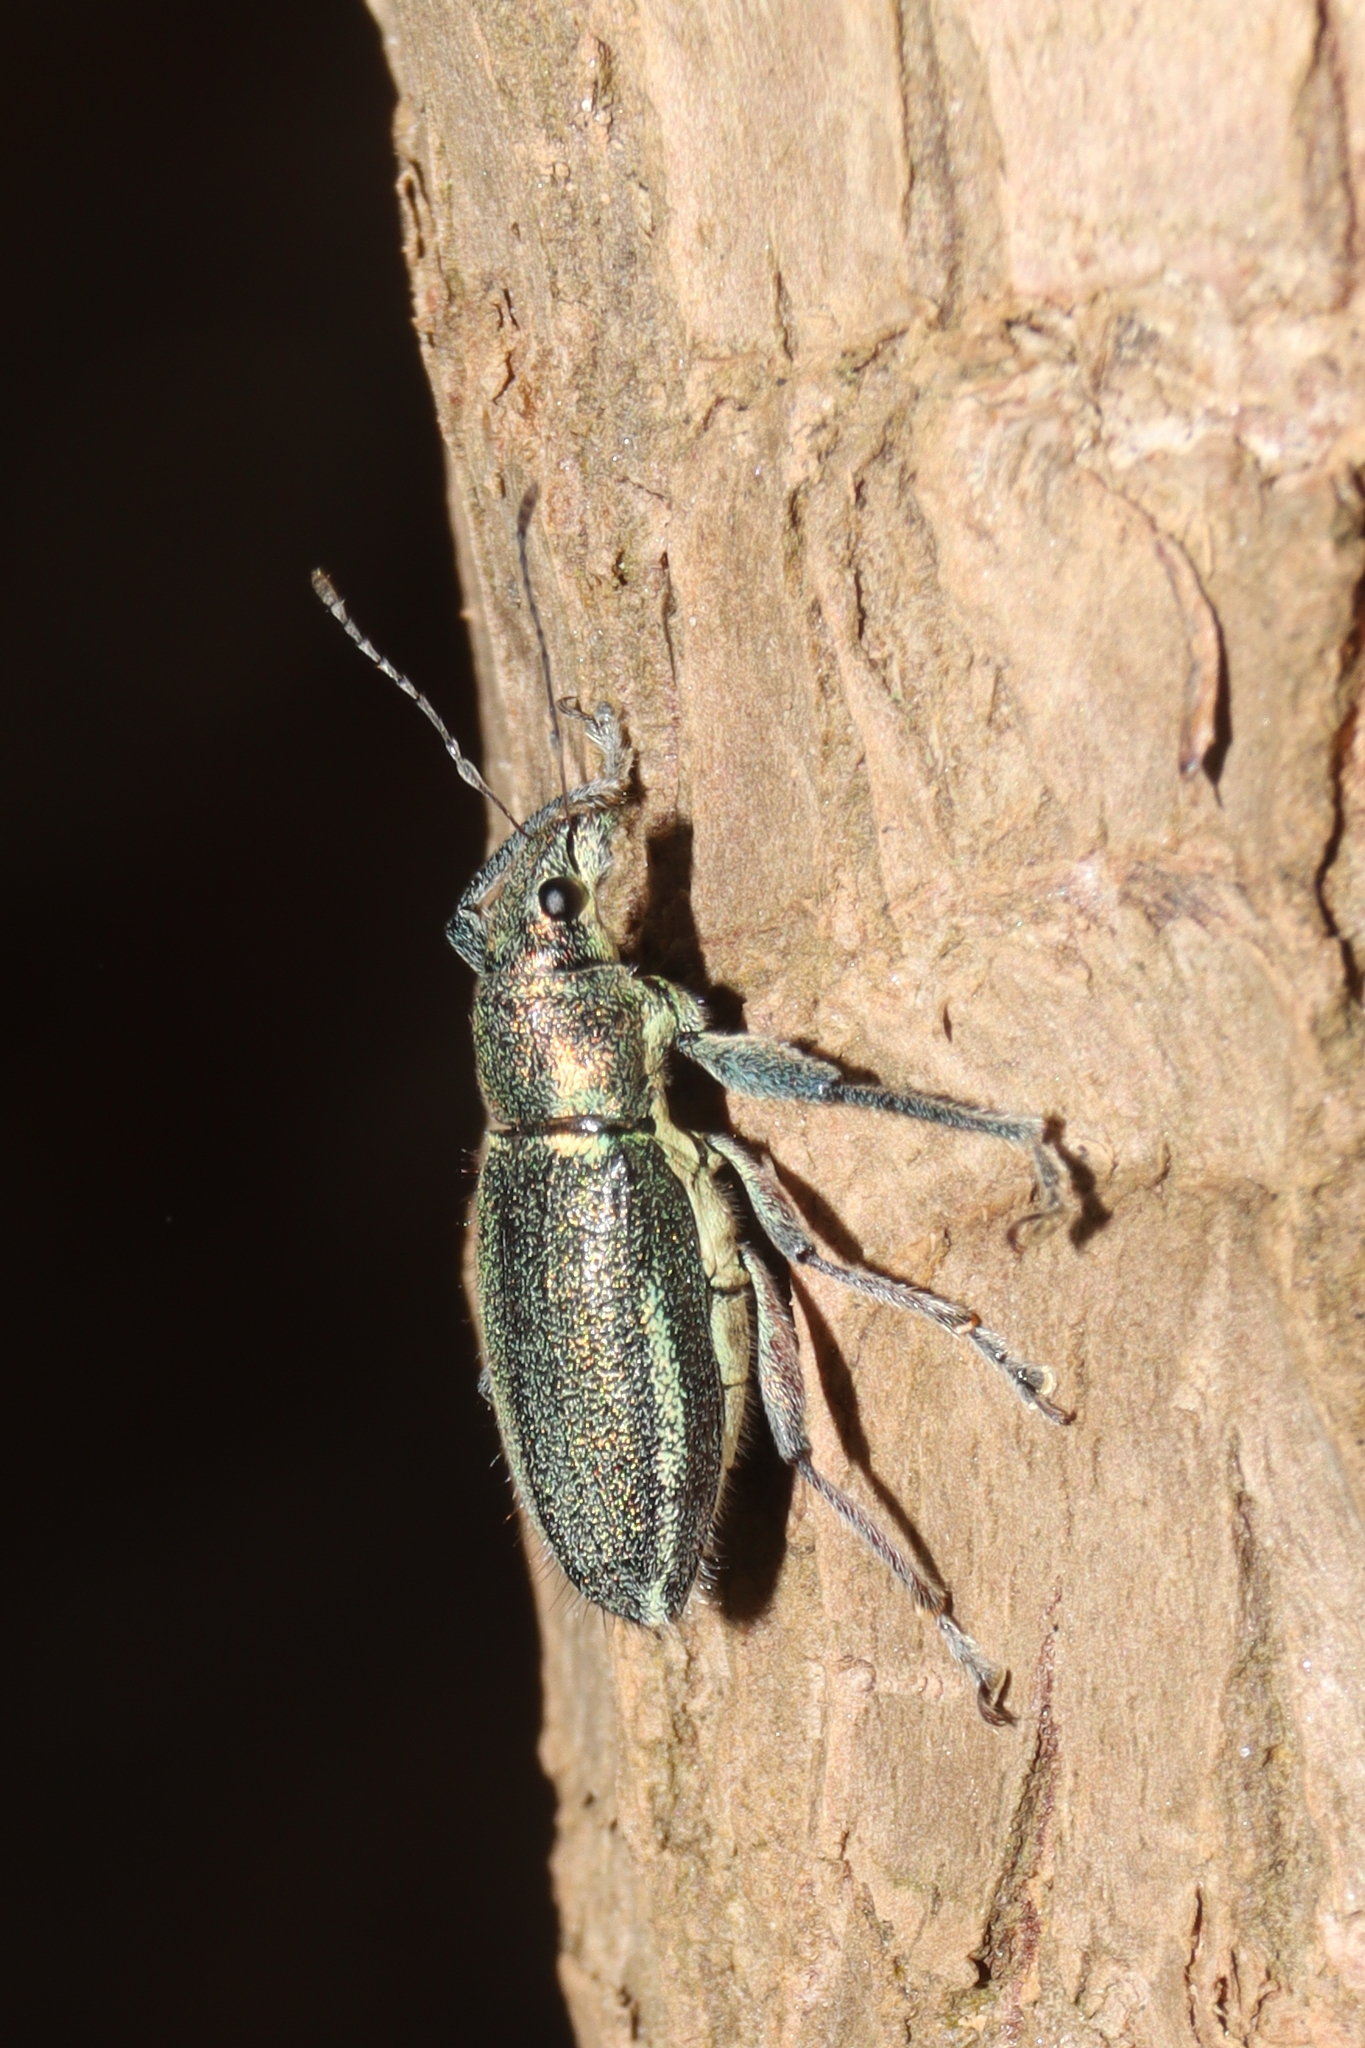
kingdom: Animalia
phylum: Arthropoda
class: Insecta
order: Coleoptera
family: Curculionidae
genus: Naupactus
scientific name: Naupactus auricinctus
